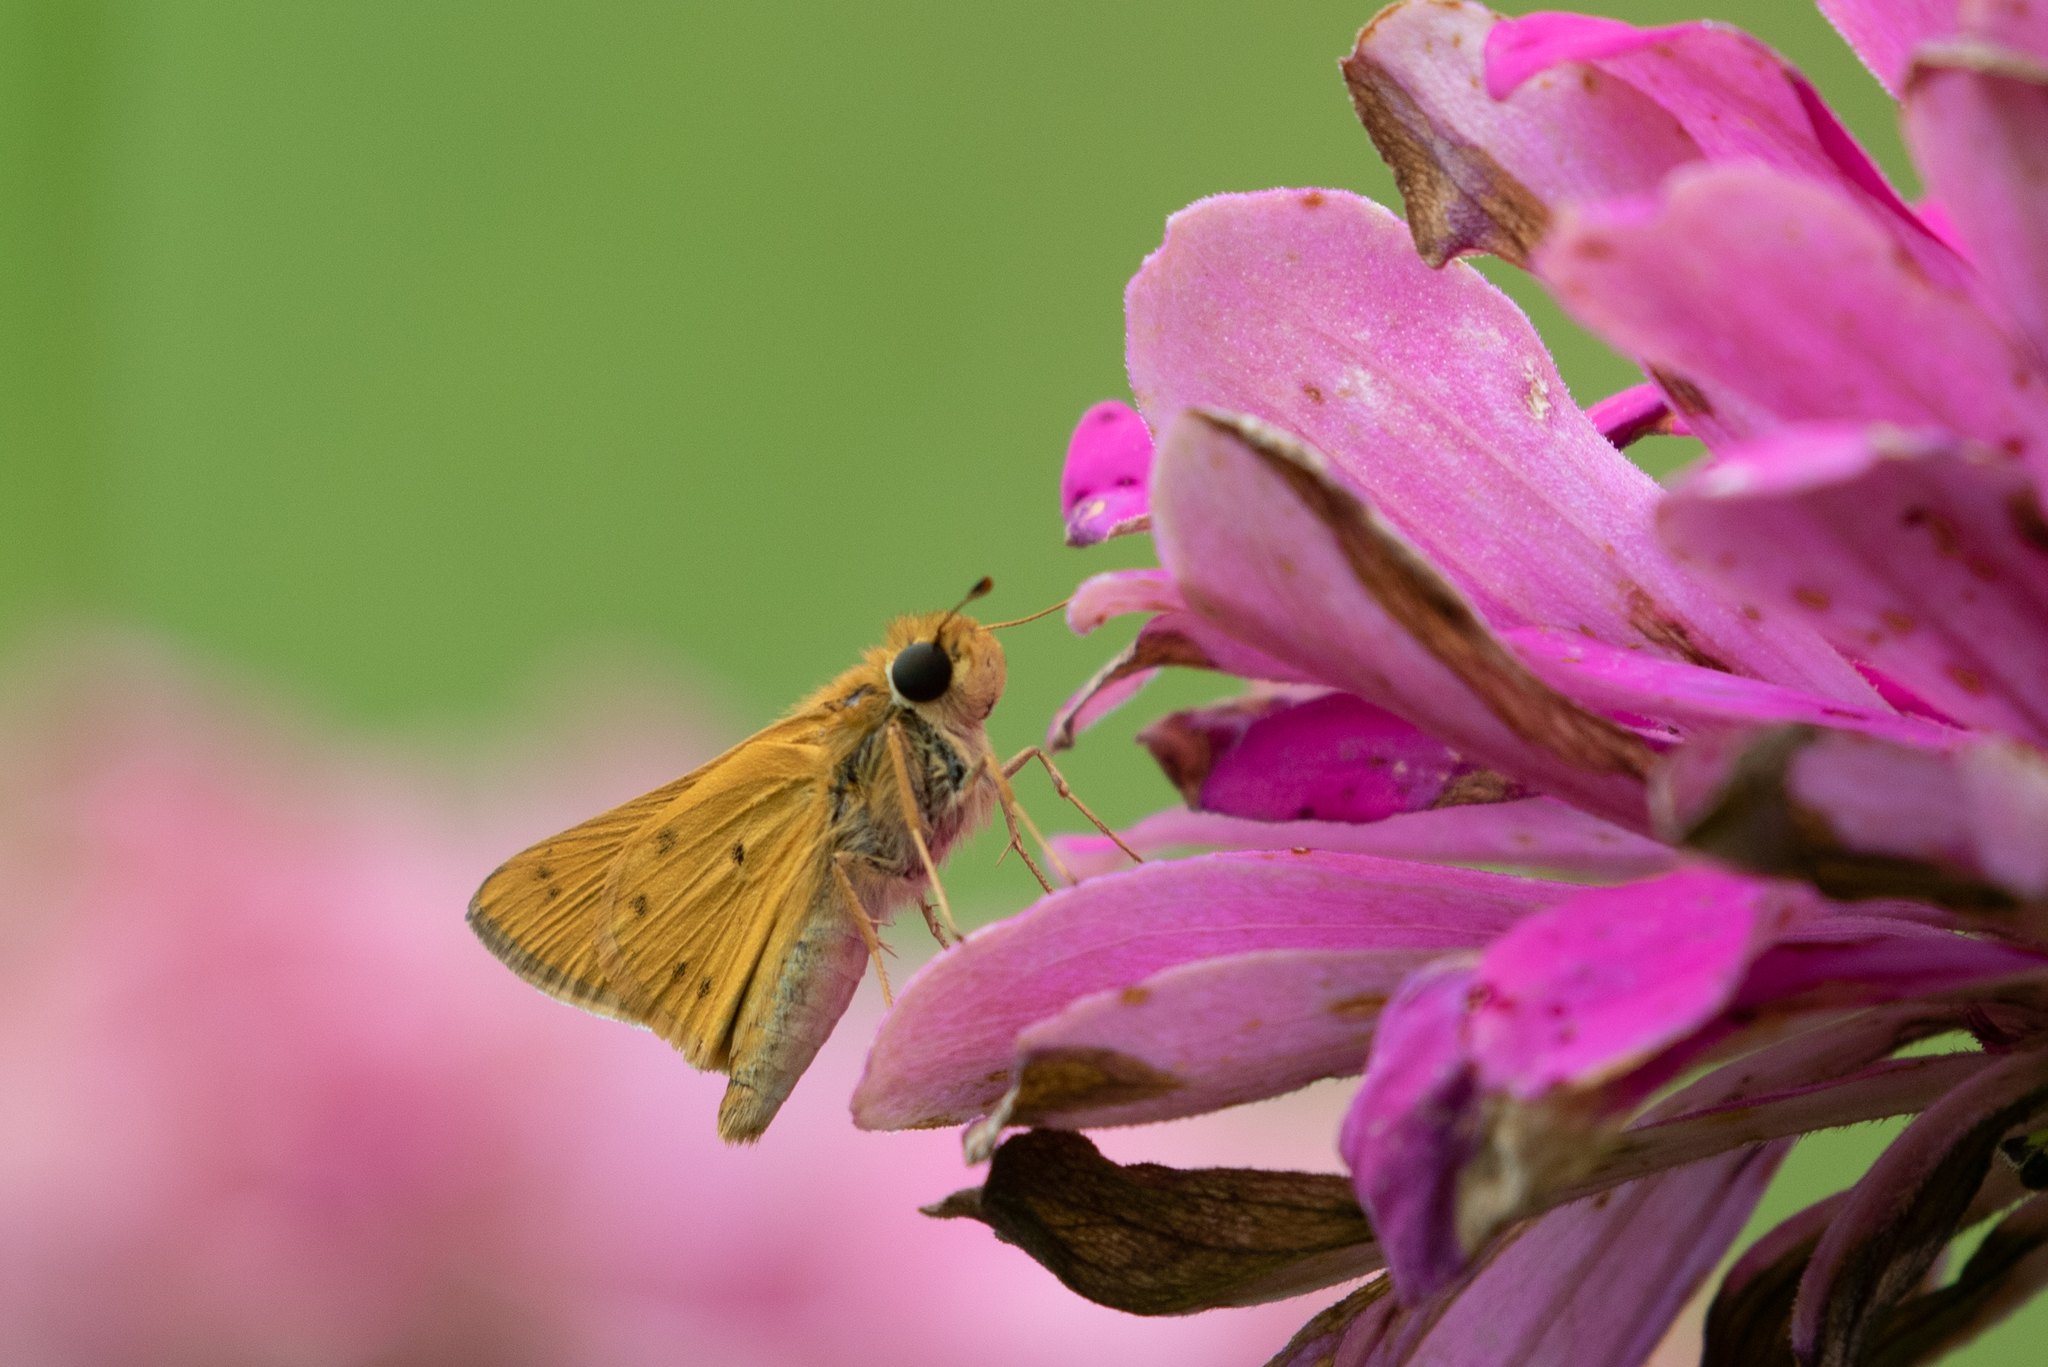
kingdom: Animalia
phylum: Arthropoda
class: Insecta
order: Lepidoptera
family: Hesperiidae
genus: Hylephila
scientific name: Hylephila phyleus
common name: Fiery skipper
